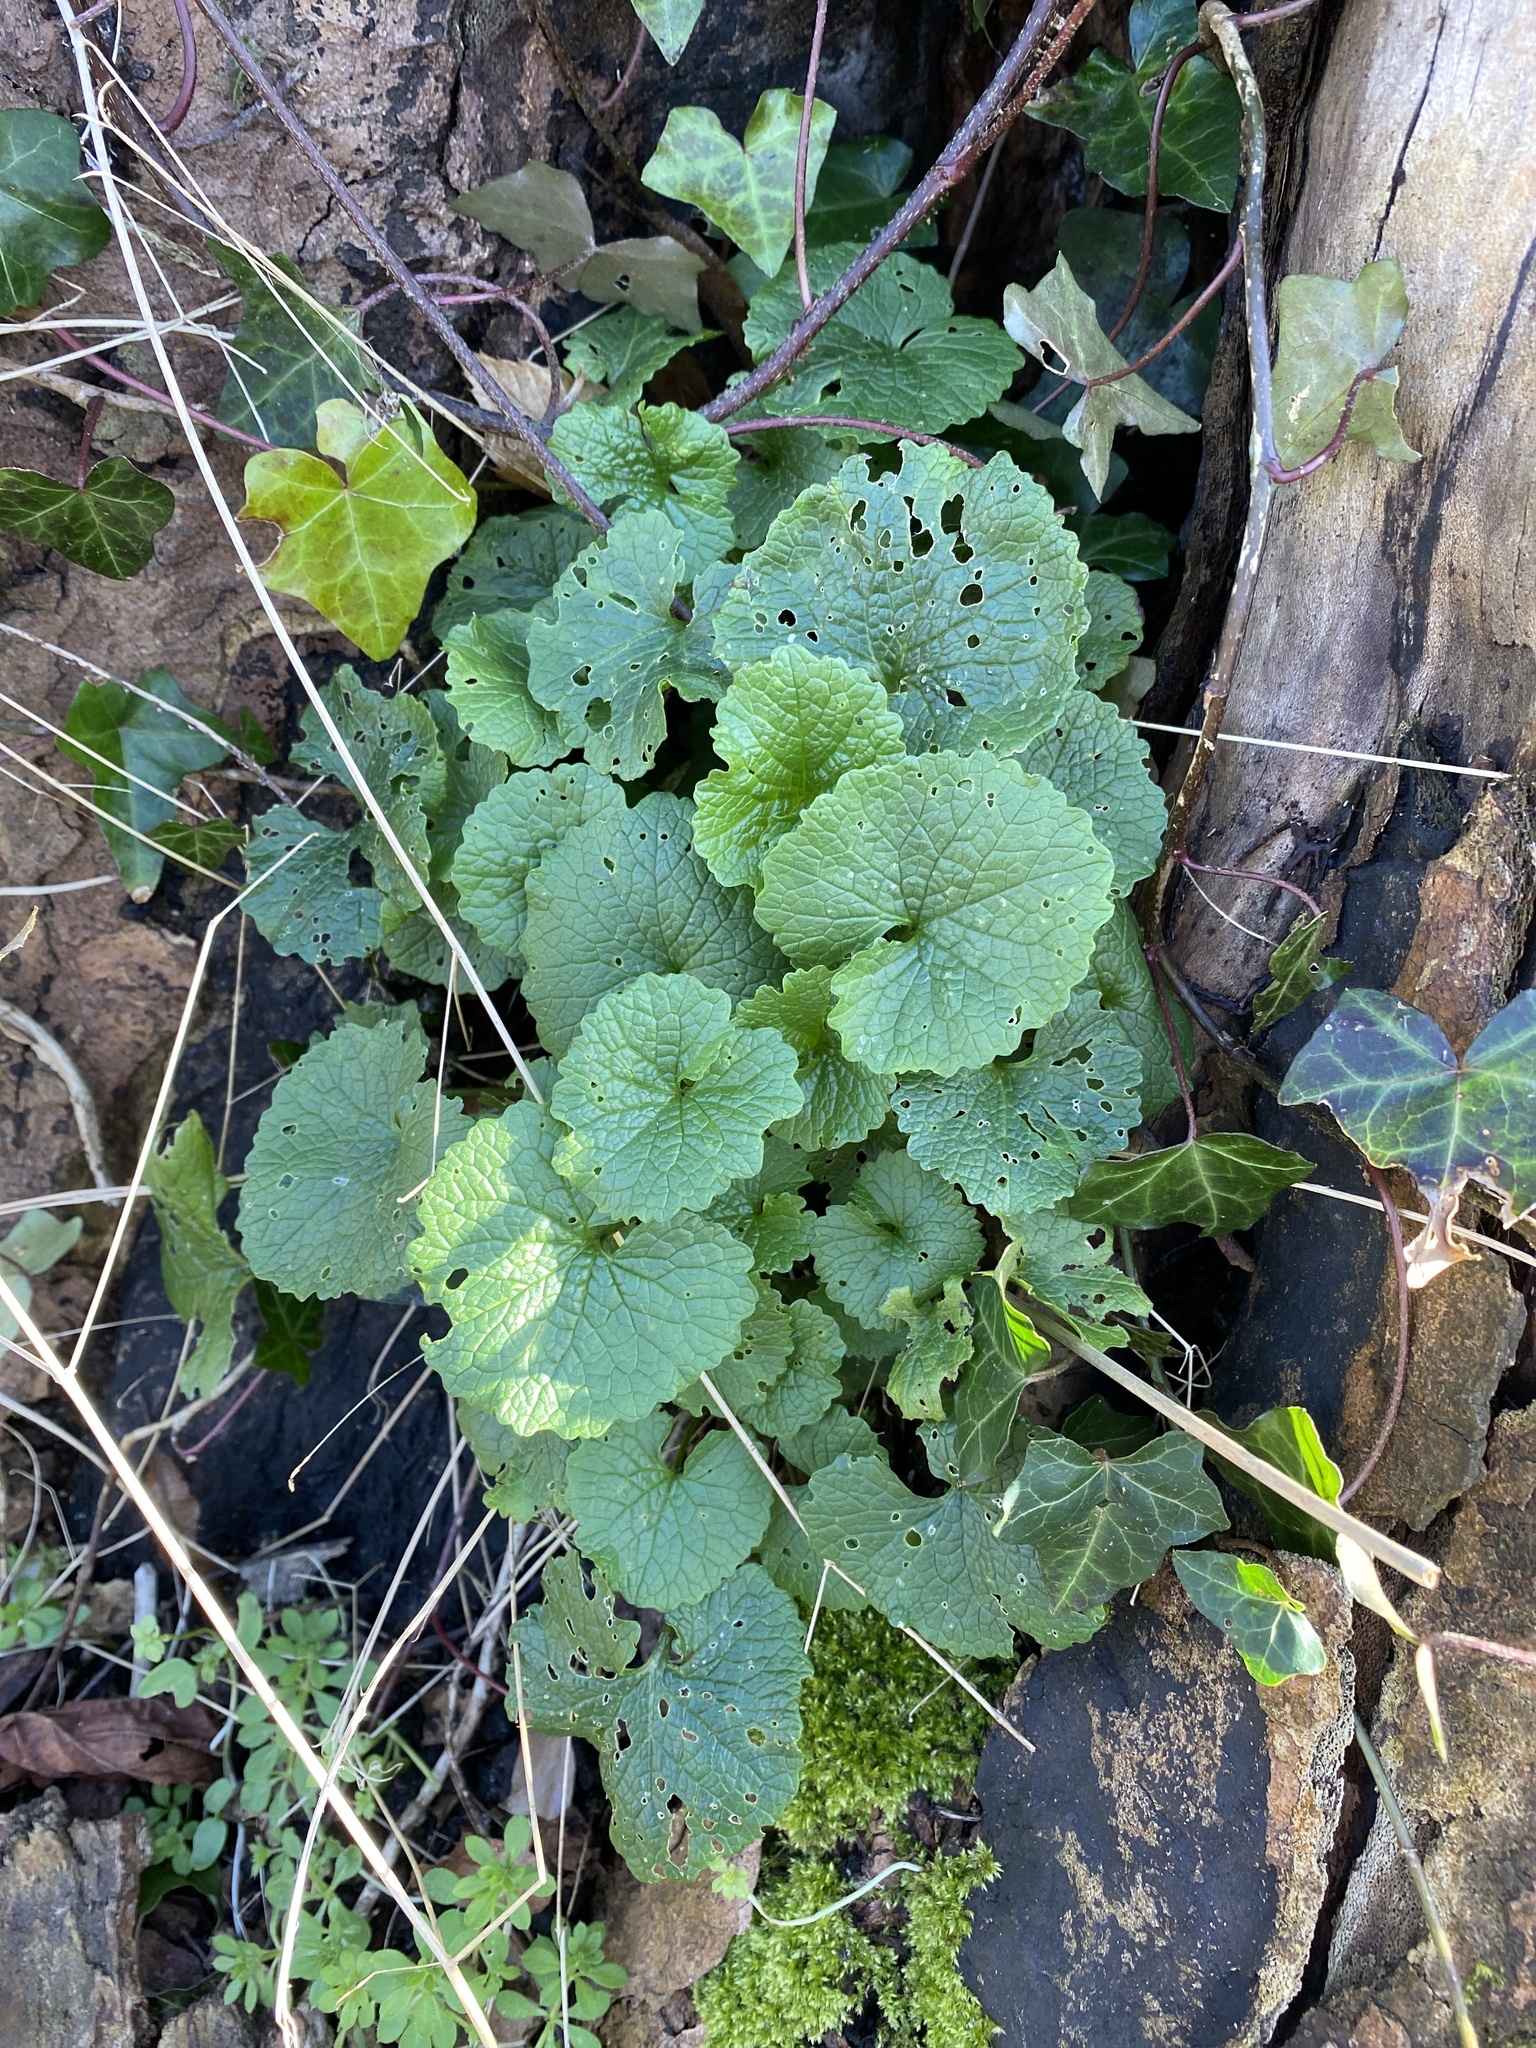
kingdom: Plantae
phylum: Tracheophyta
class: Magnoliopsida
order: Brassicales
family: Brassicaceae
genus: Alliaria
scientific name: Alliaria petiolata
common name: Garlic mustard
